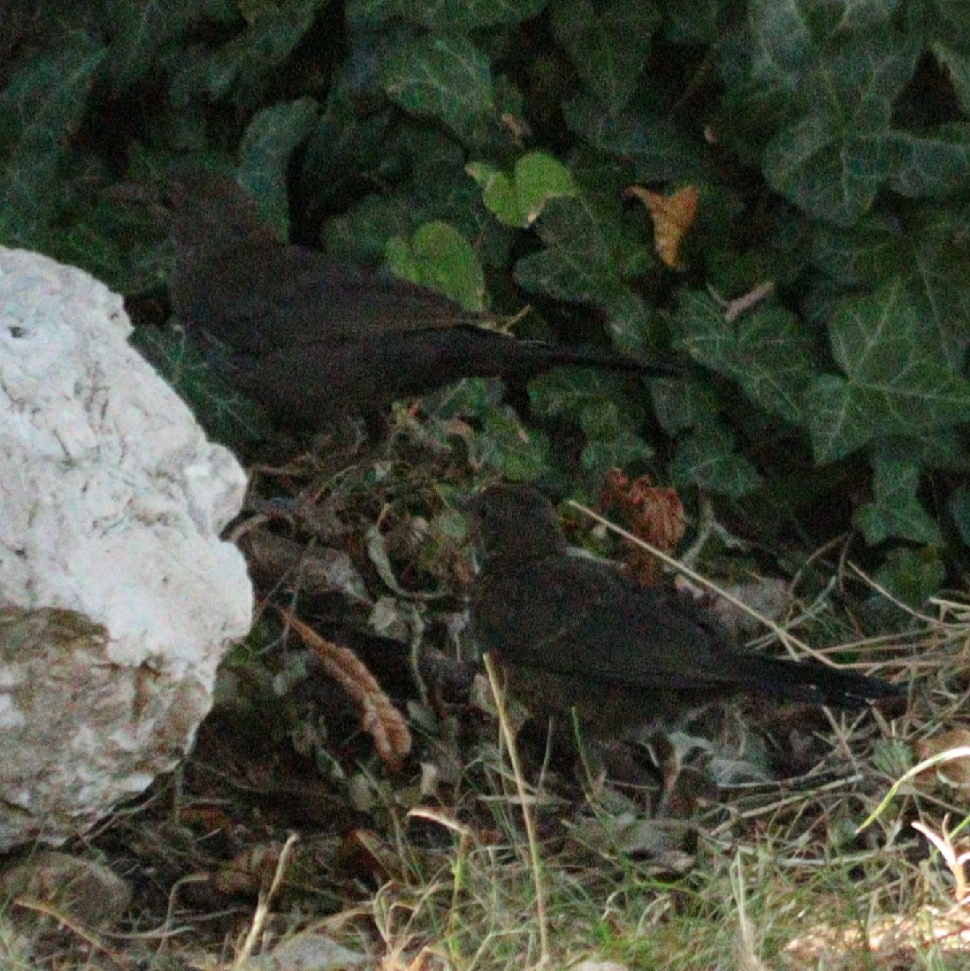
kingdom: Animalia
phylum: Chordata
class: Aves
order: Passeriformes
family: Turdidae
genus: Turdus
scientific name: Turdus merula
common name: Common blackbird
